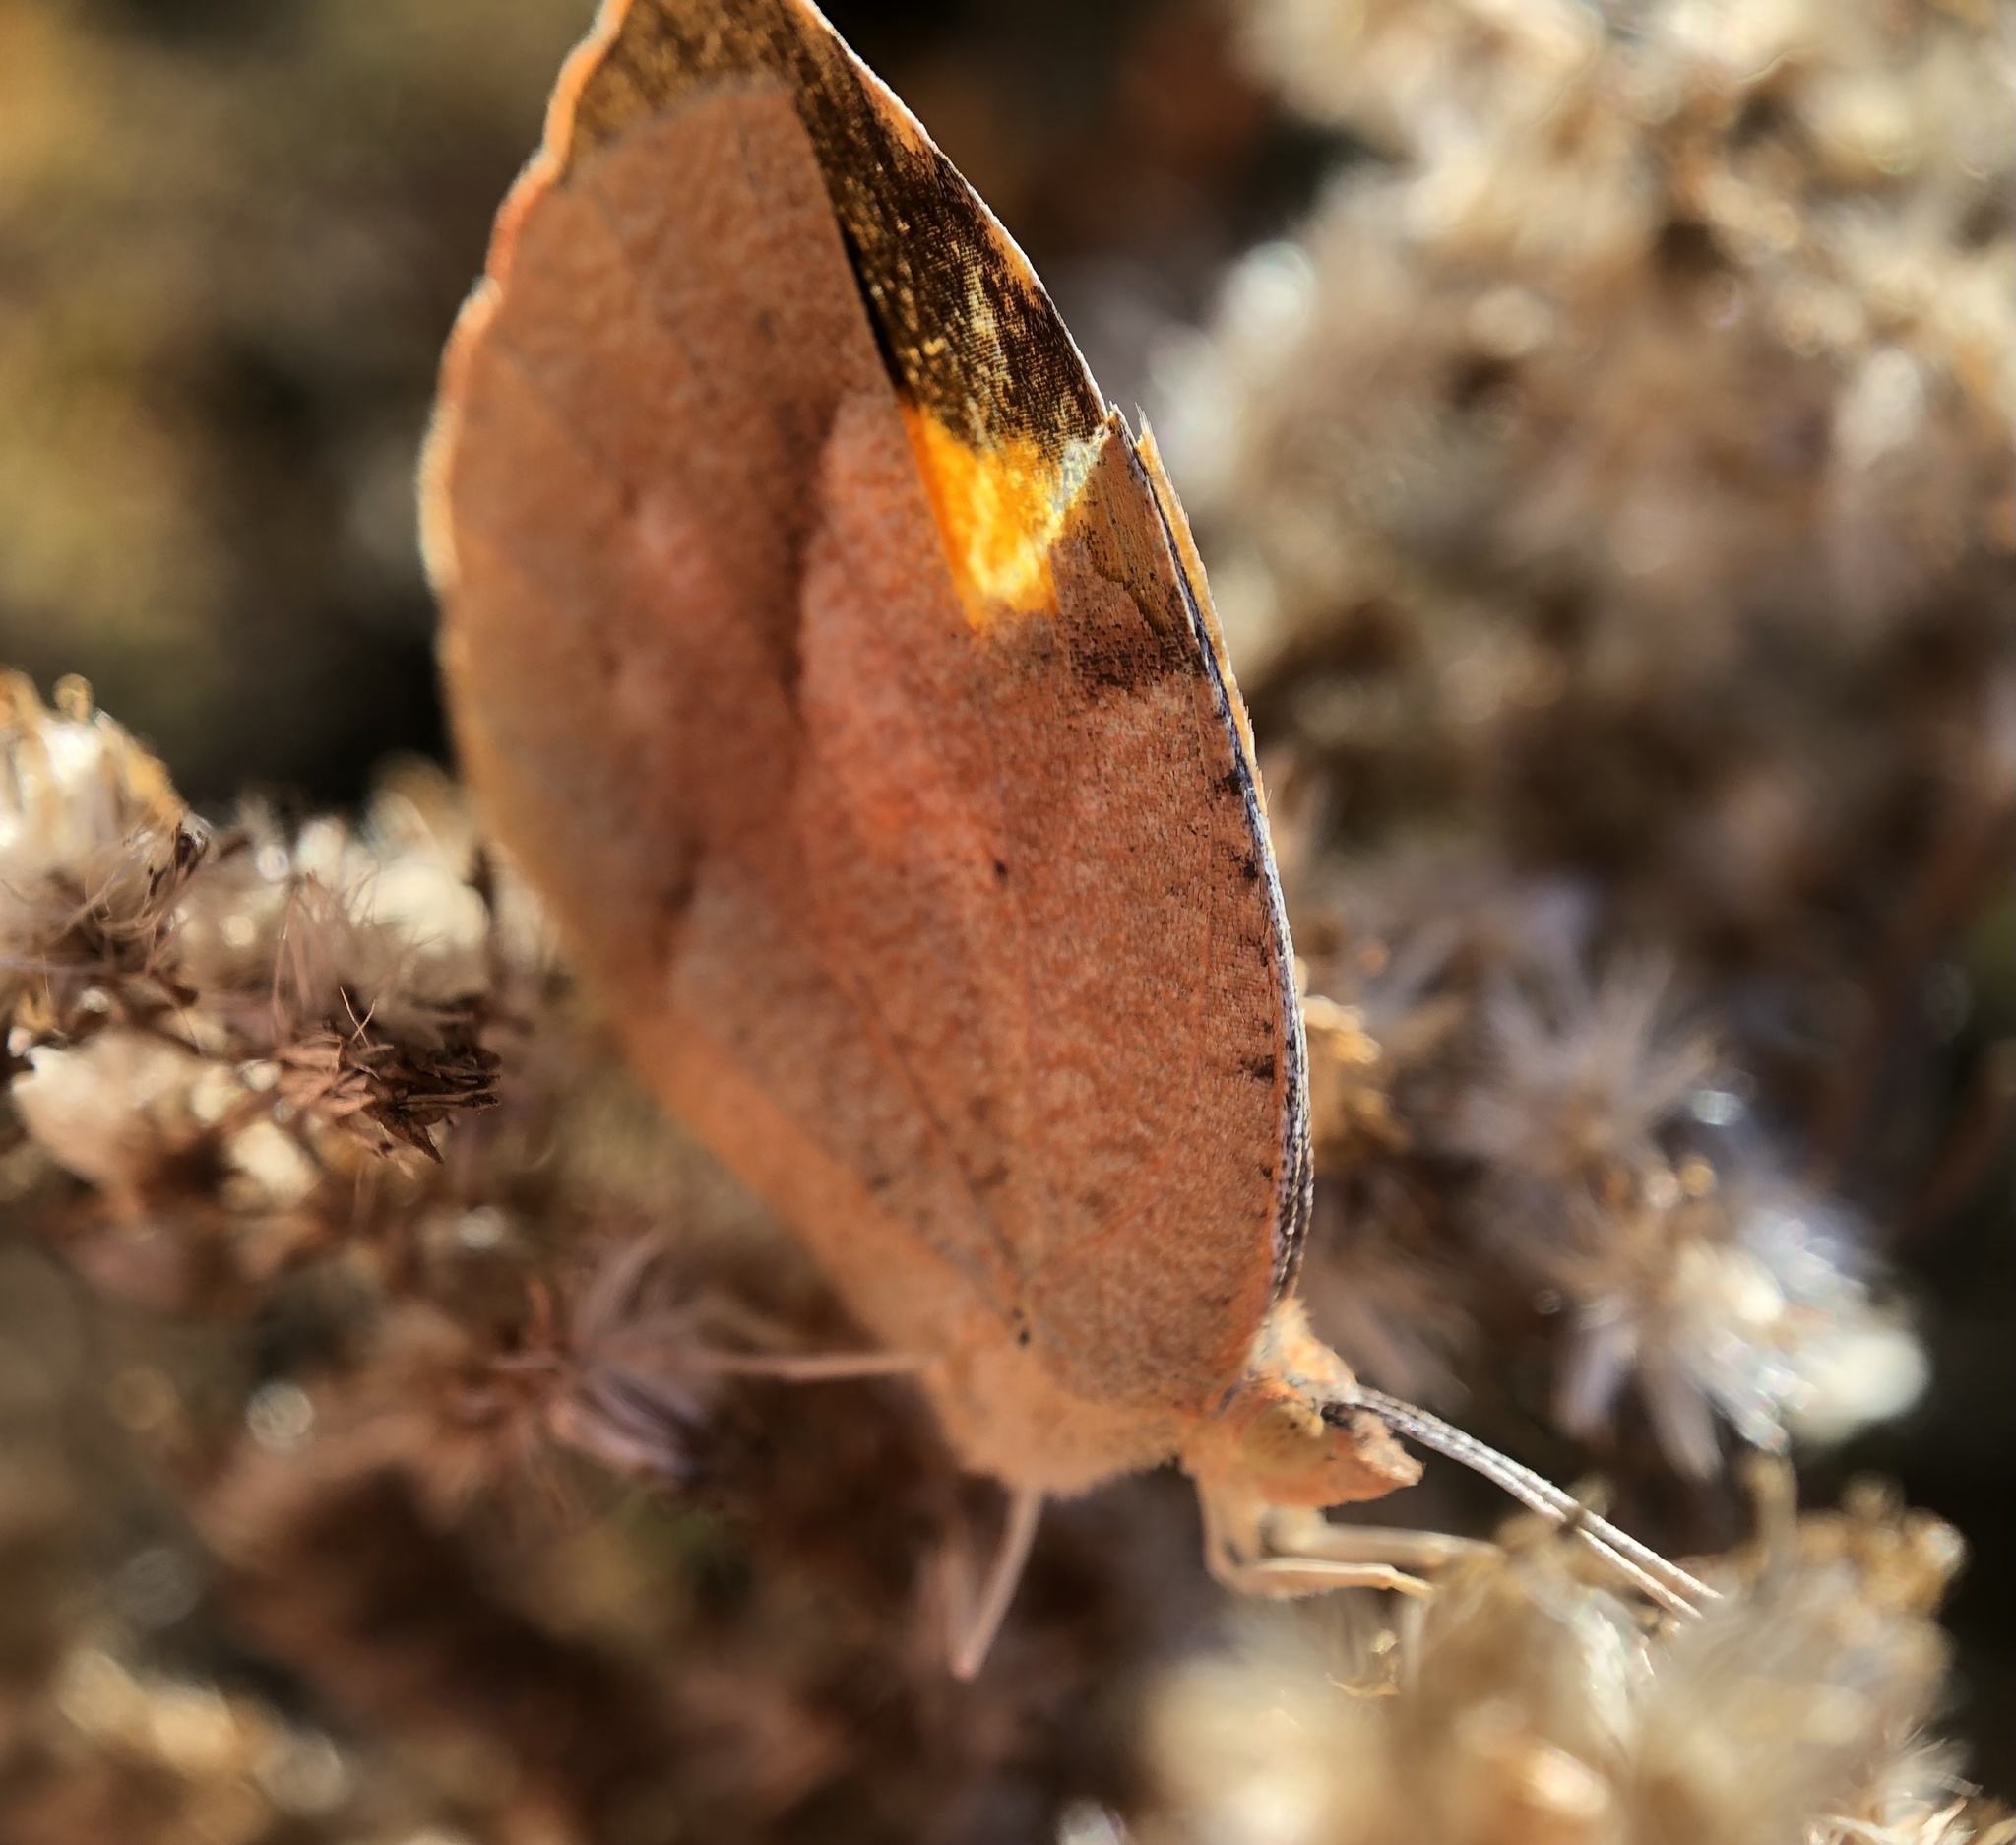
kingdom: Animalia
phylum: Arthropoda
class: Insecta
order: Lepidoptera
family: Pieridae
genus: Abaeis
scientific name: Abaeis nicippe
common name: Sleepy orange
